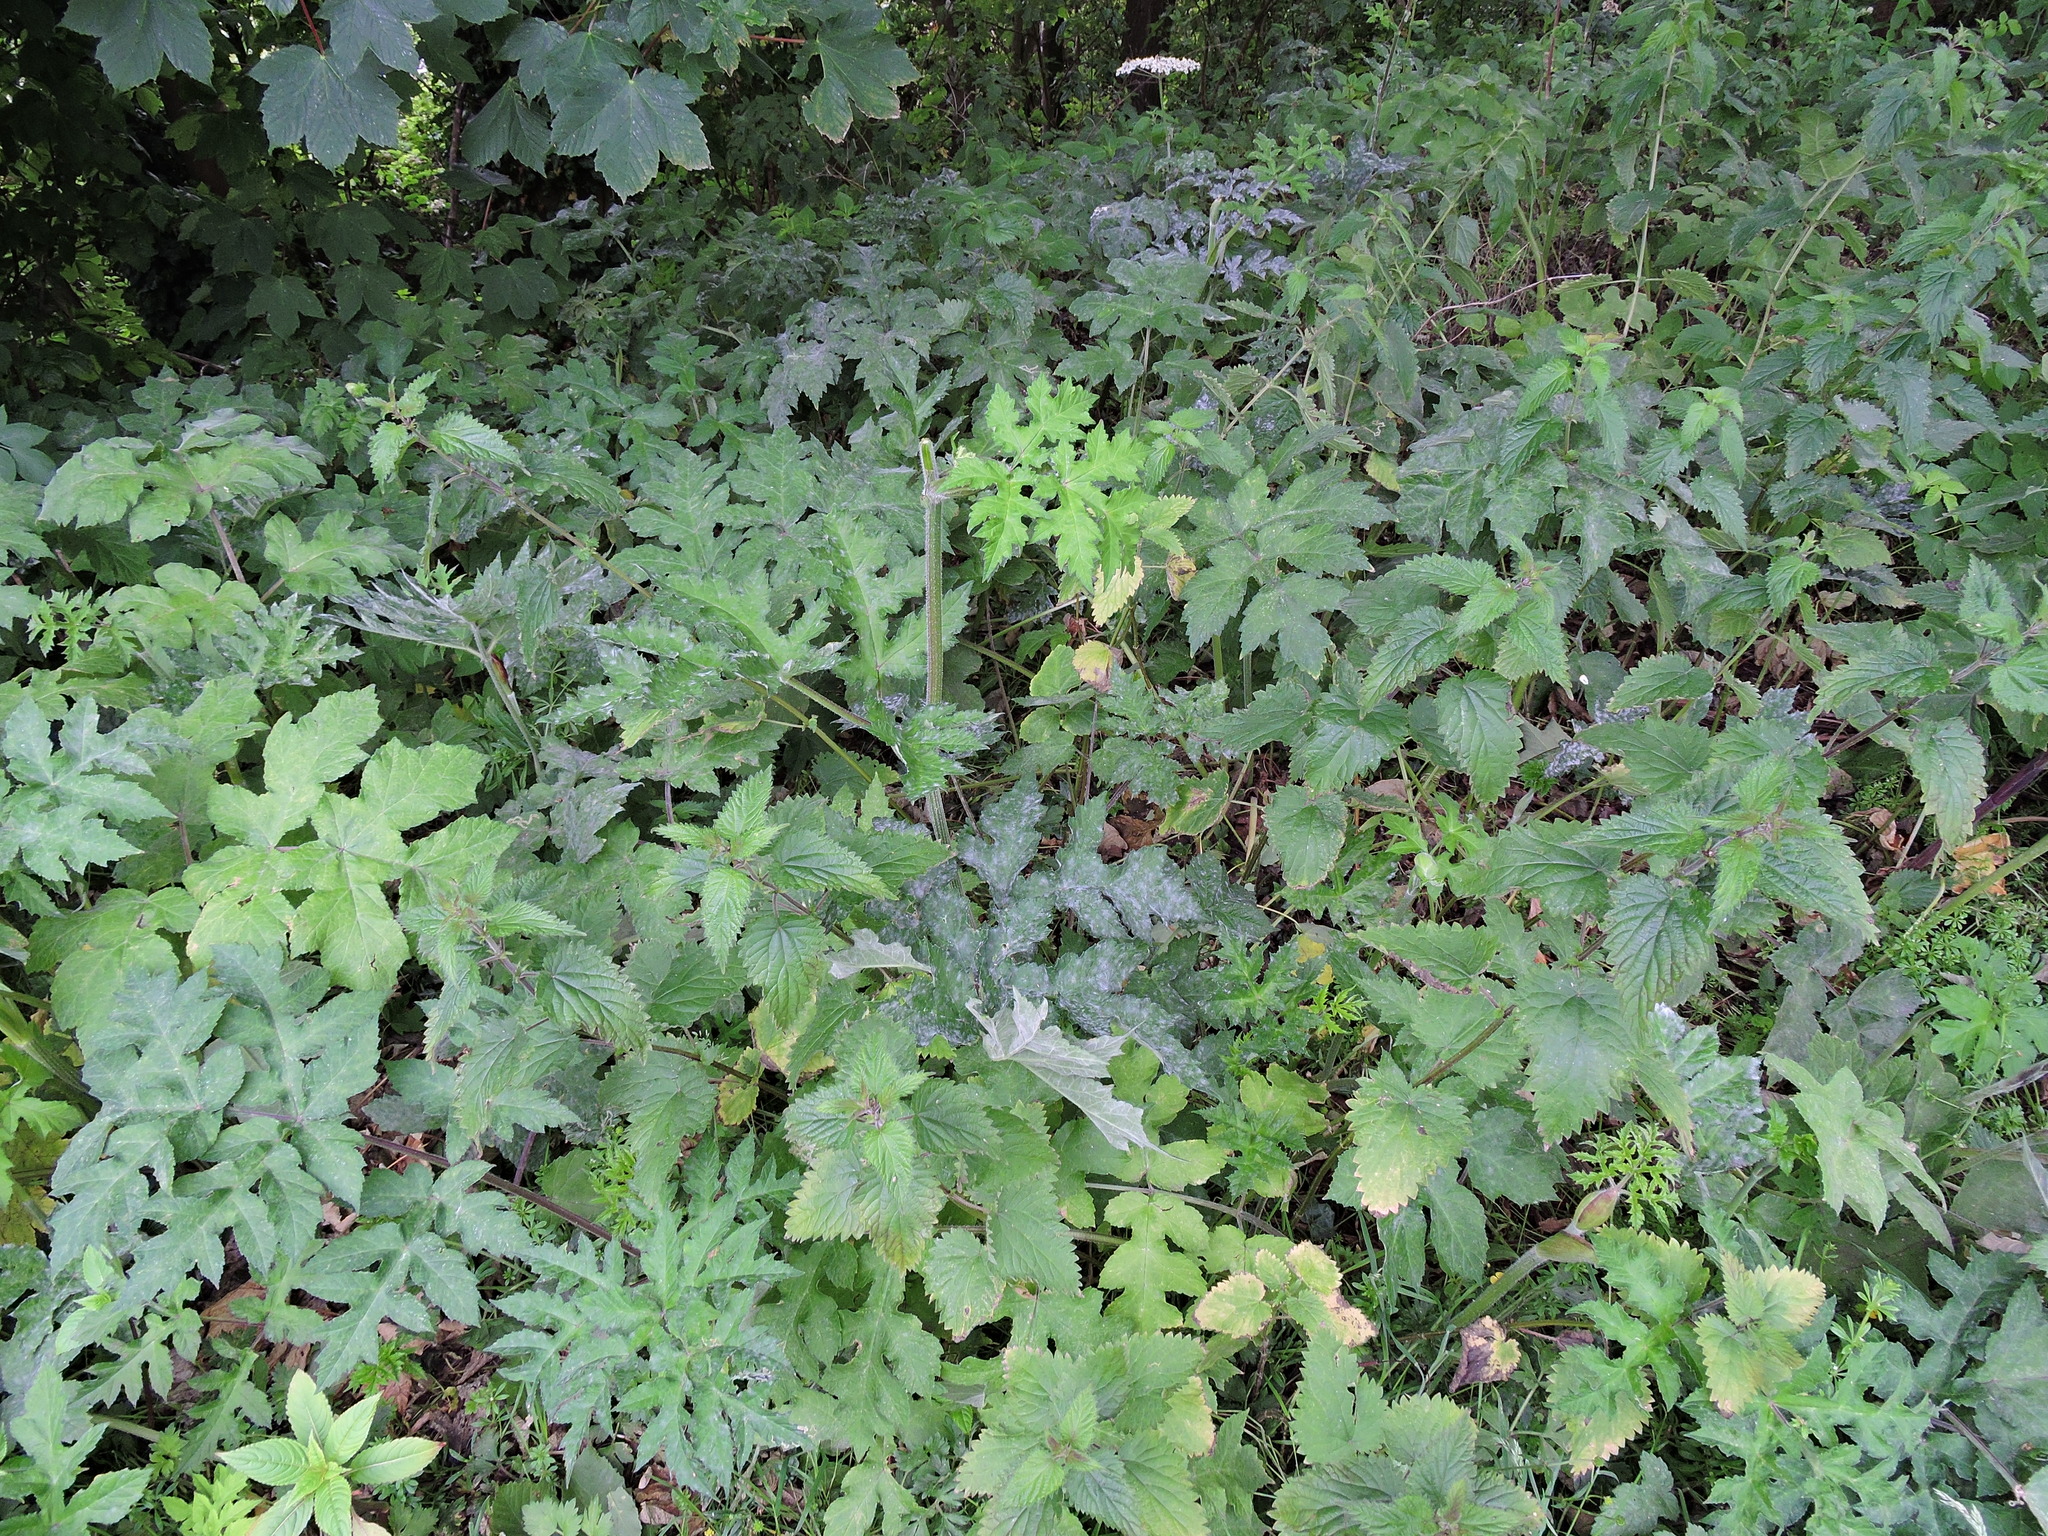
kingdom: Plantae
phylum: Tracheophyta
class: Magnoliopsida
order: Apiales
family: Apiaceae
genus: Heracleum
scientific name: Heracleum sphondylium
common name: Hogweed
